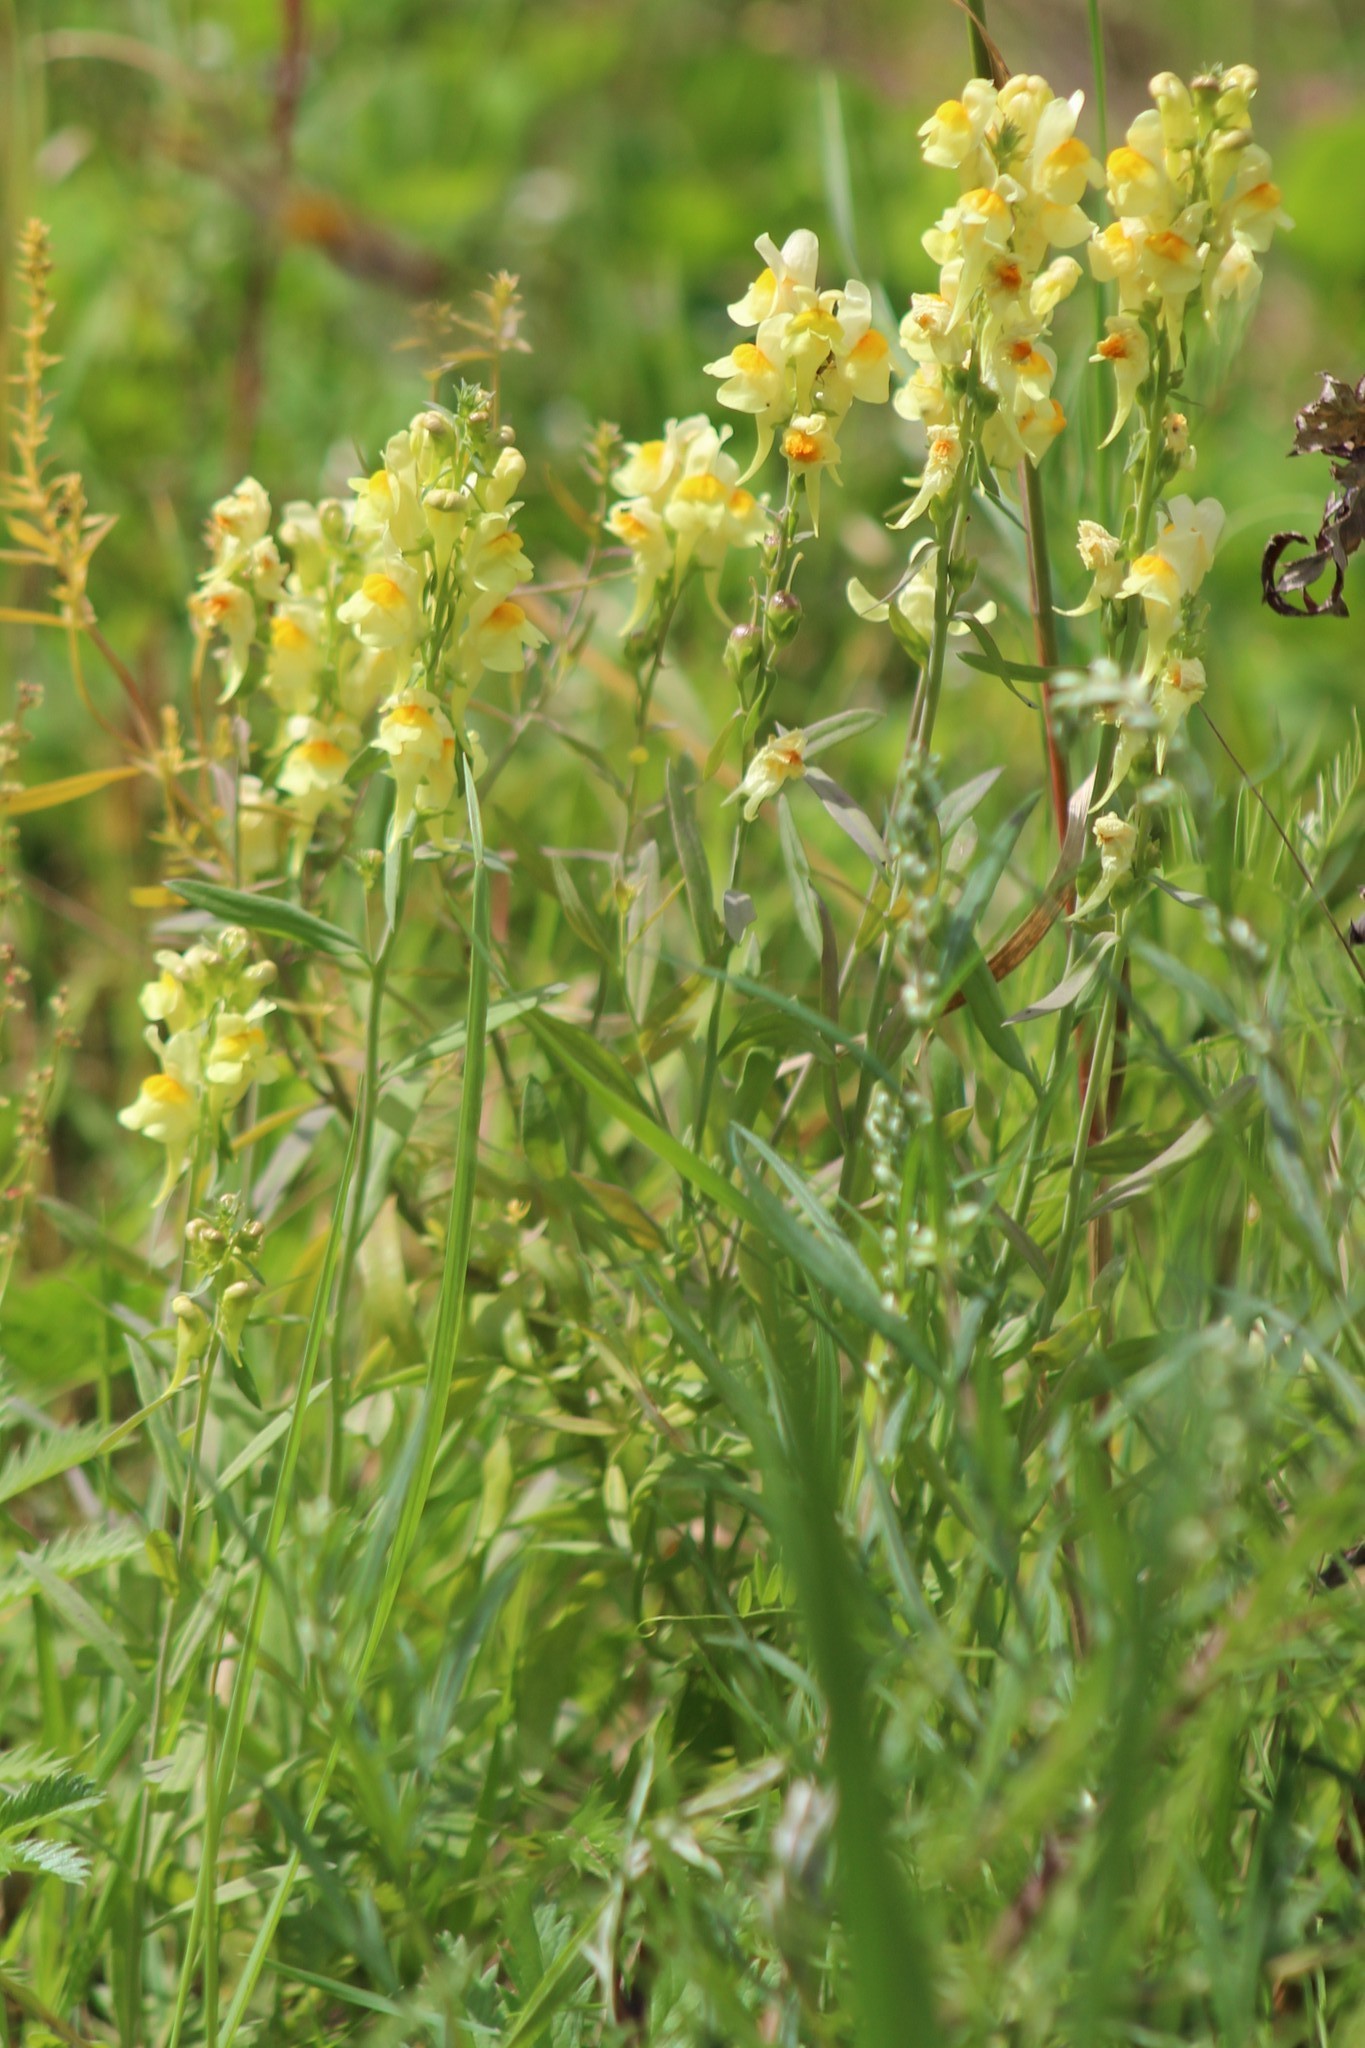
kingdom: Plantae
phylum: Tracheophyta
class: Magnoliopsida
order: Lamiales
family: Plantaginaceae
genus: Linaria
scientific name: Linaria vulgaris
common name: Butter and eggs
